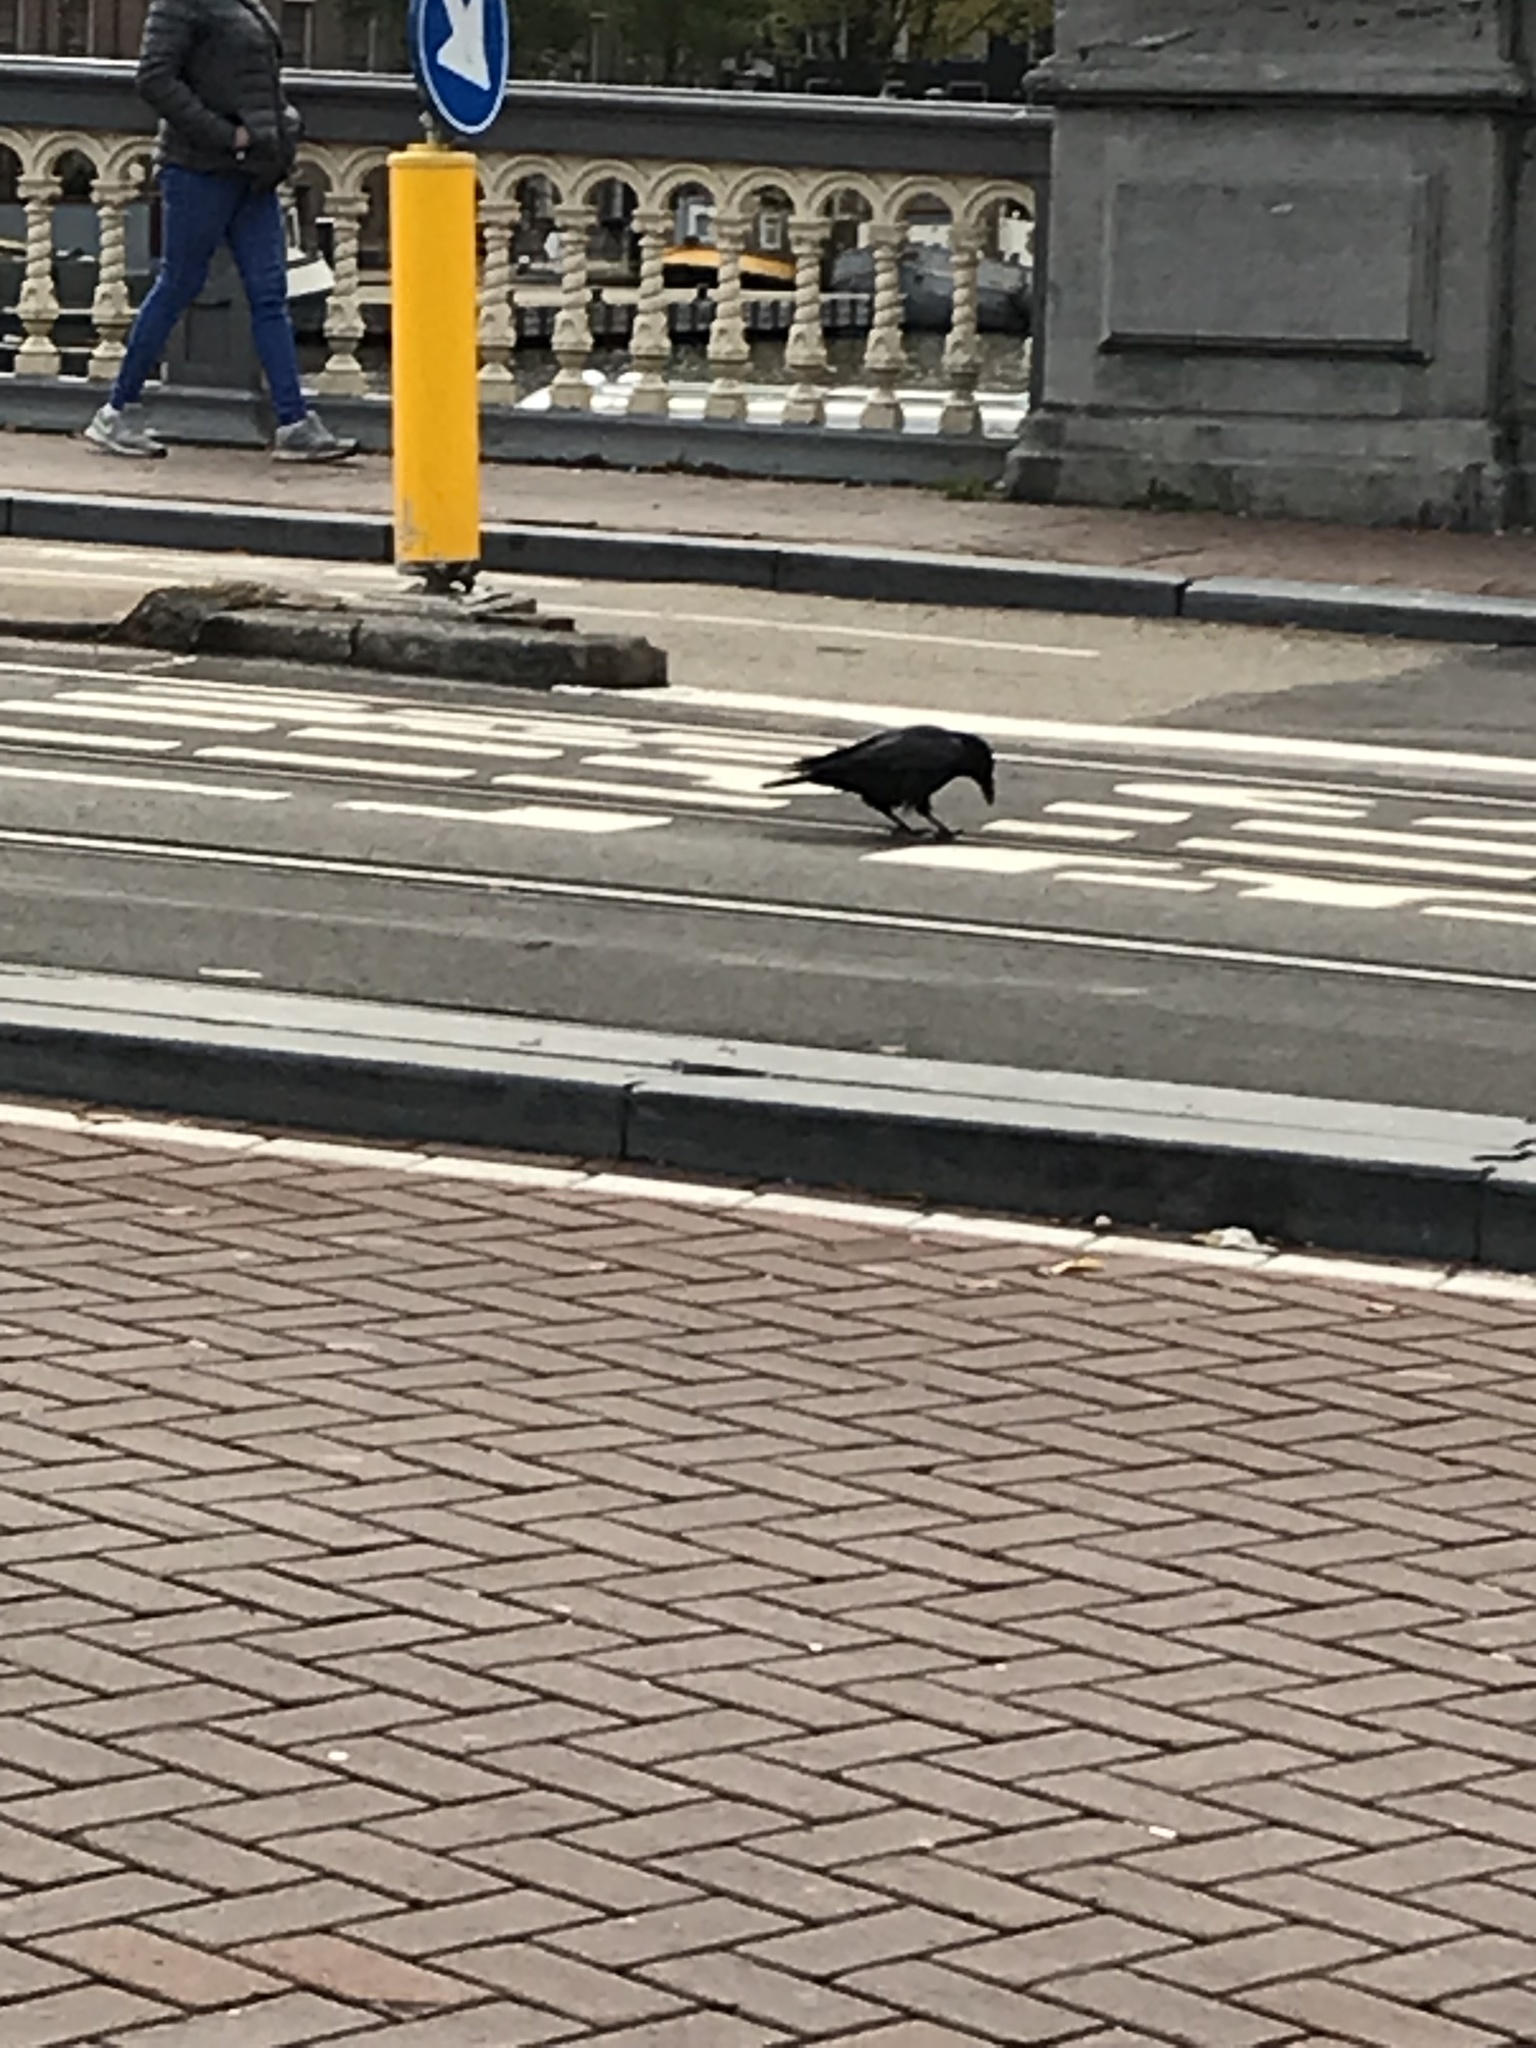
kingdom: Animalia
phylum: Chordata
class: Aves
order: Passeriformes
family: Corvidae
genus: Corvus
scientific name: Corvus corone
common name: Carrion crow
